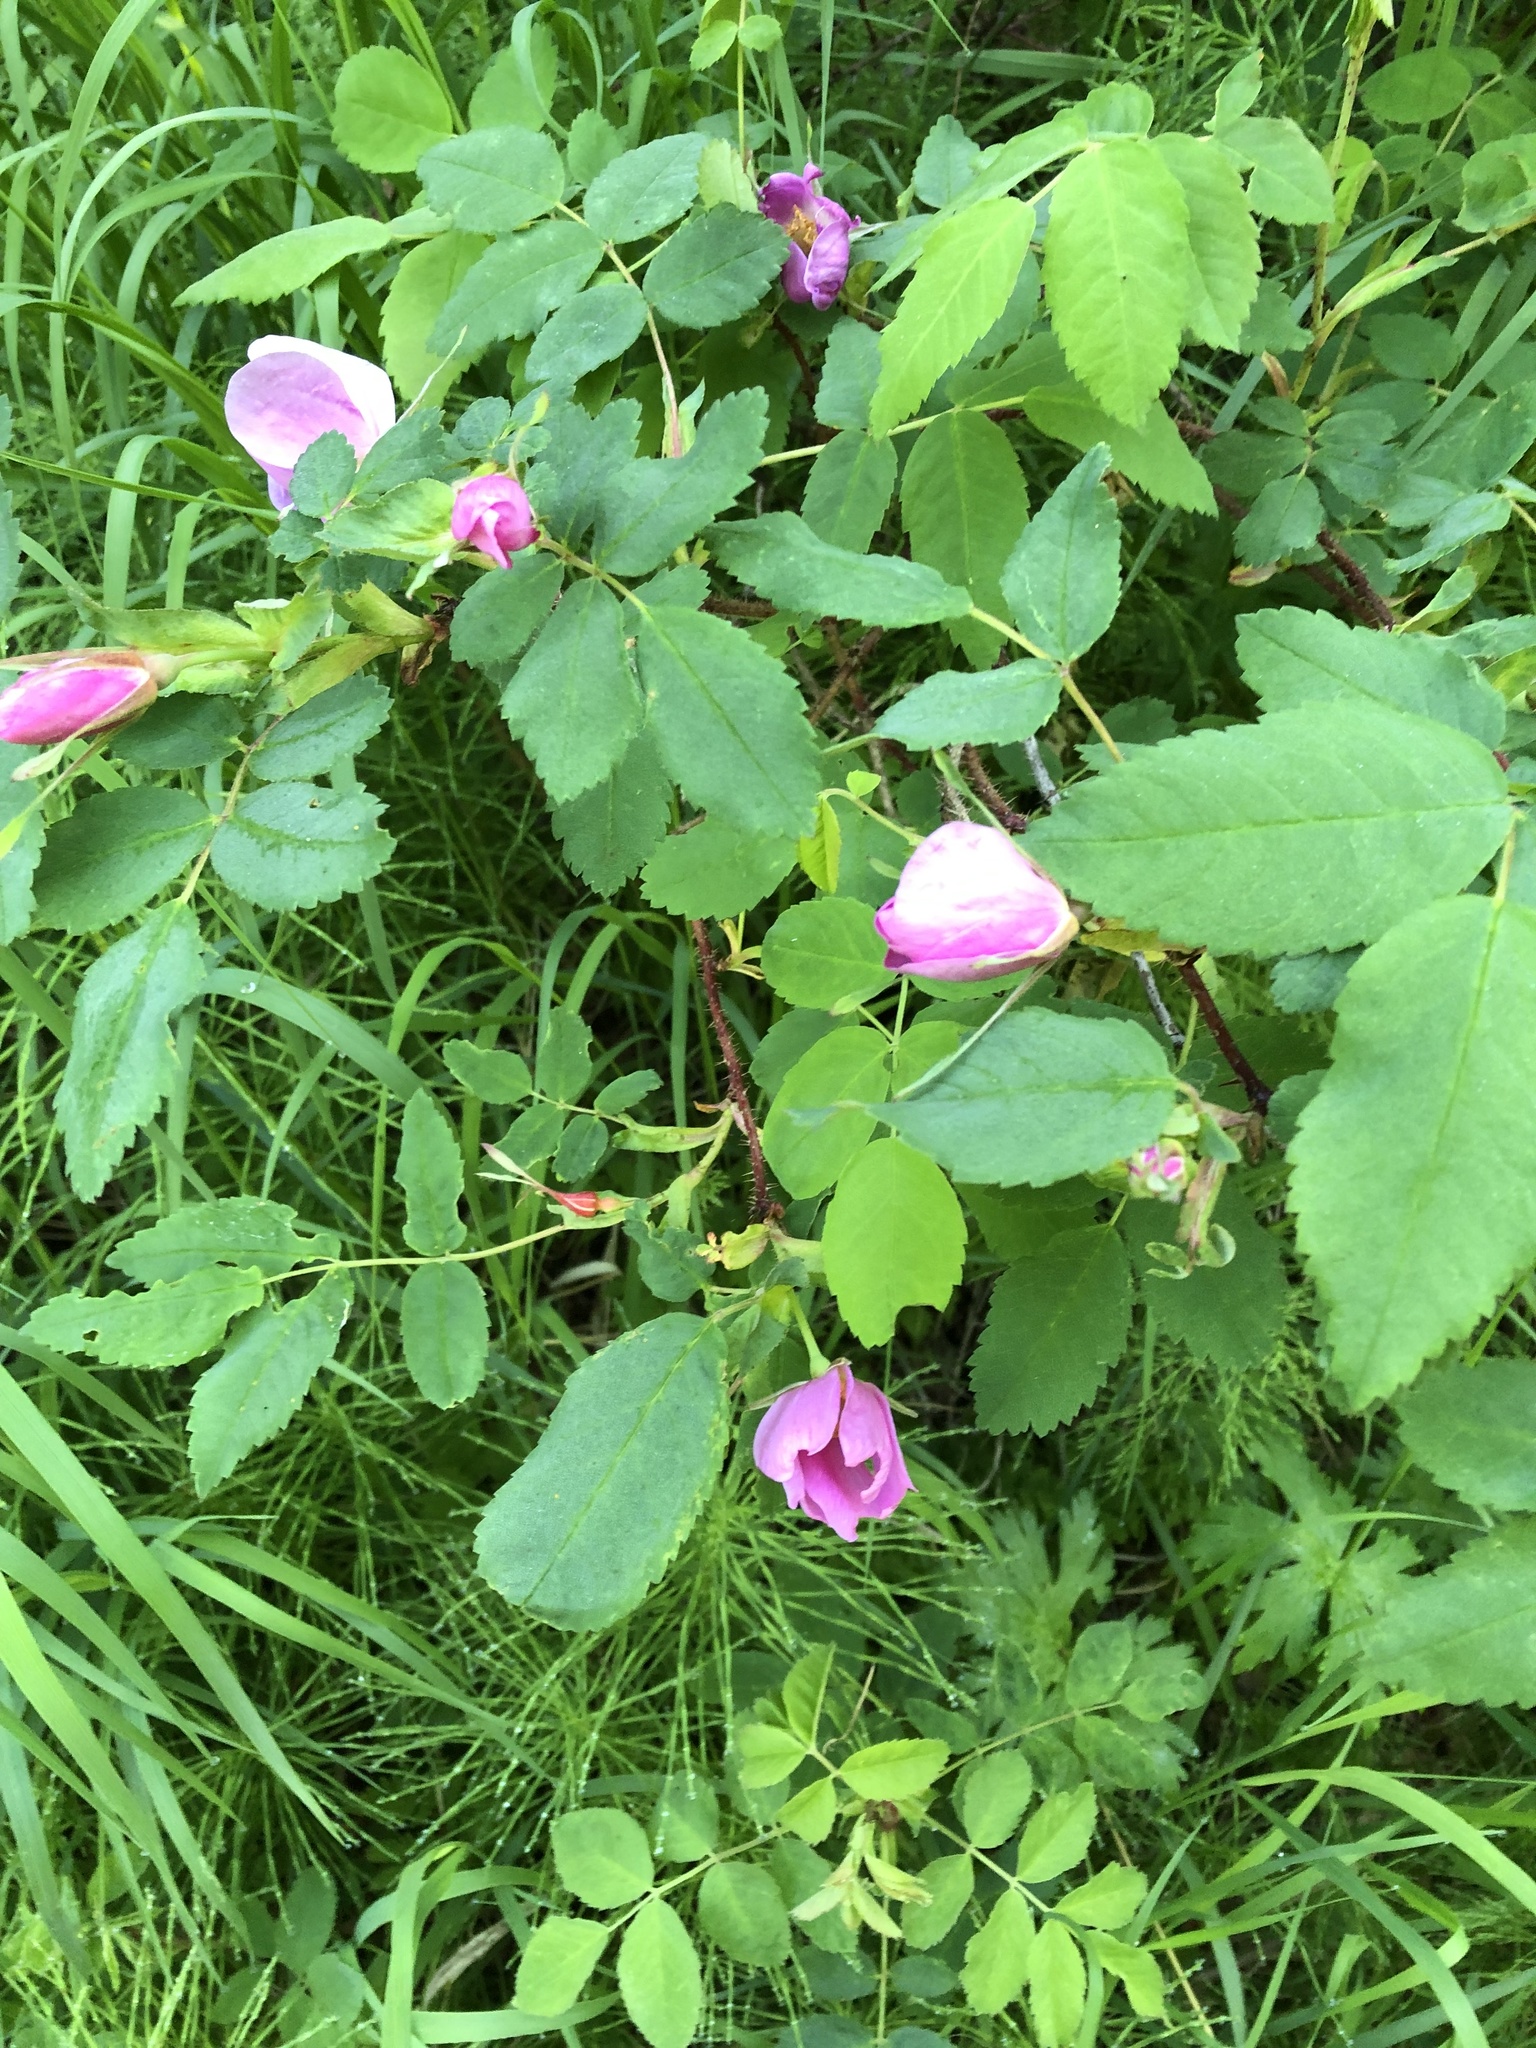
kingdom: Plantae
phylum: Tracheophyta
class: Magnoliopsida
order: Rosales
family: Rosaceae
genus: Rosa
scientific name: Rosa acicularis
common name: Prickly rose
